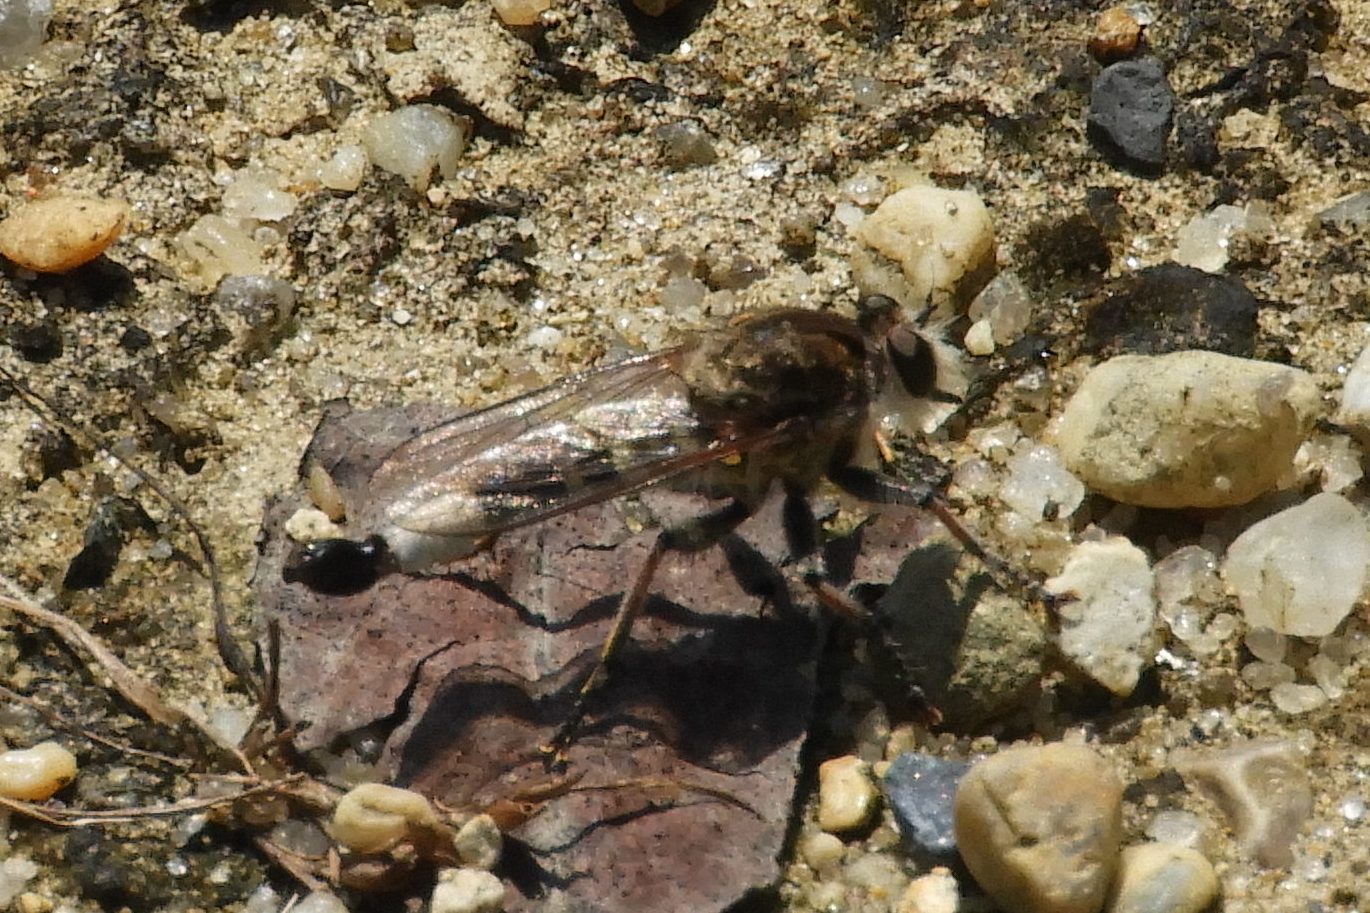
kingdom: Animalia
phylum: Arthropoda
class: Insecta
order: Diptera
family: Asilidae
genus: Efferia
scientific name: Efferia albibarbis
